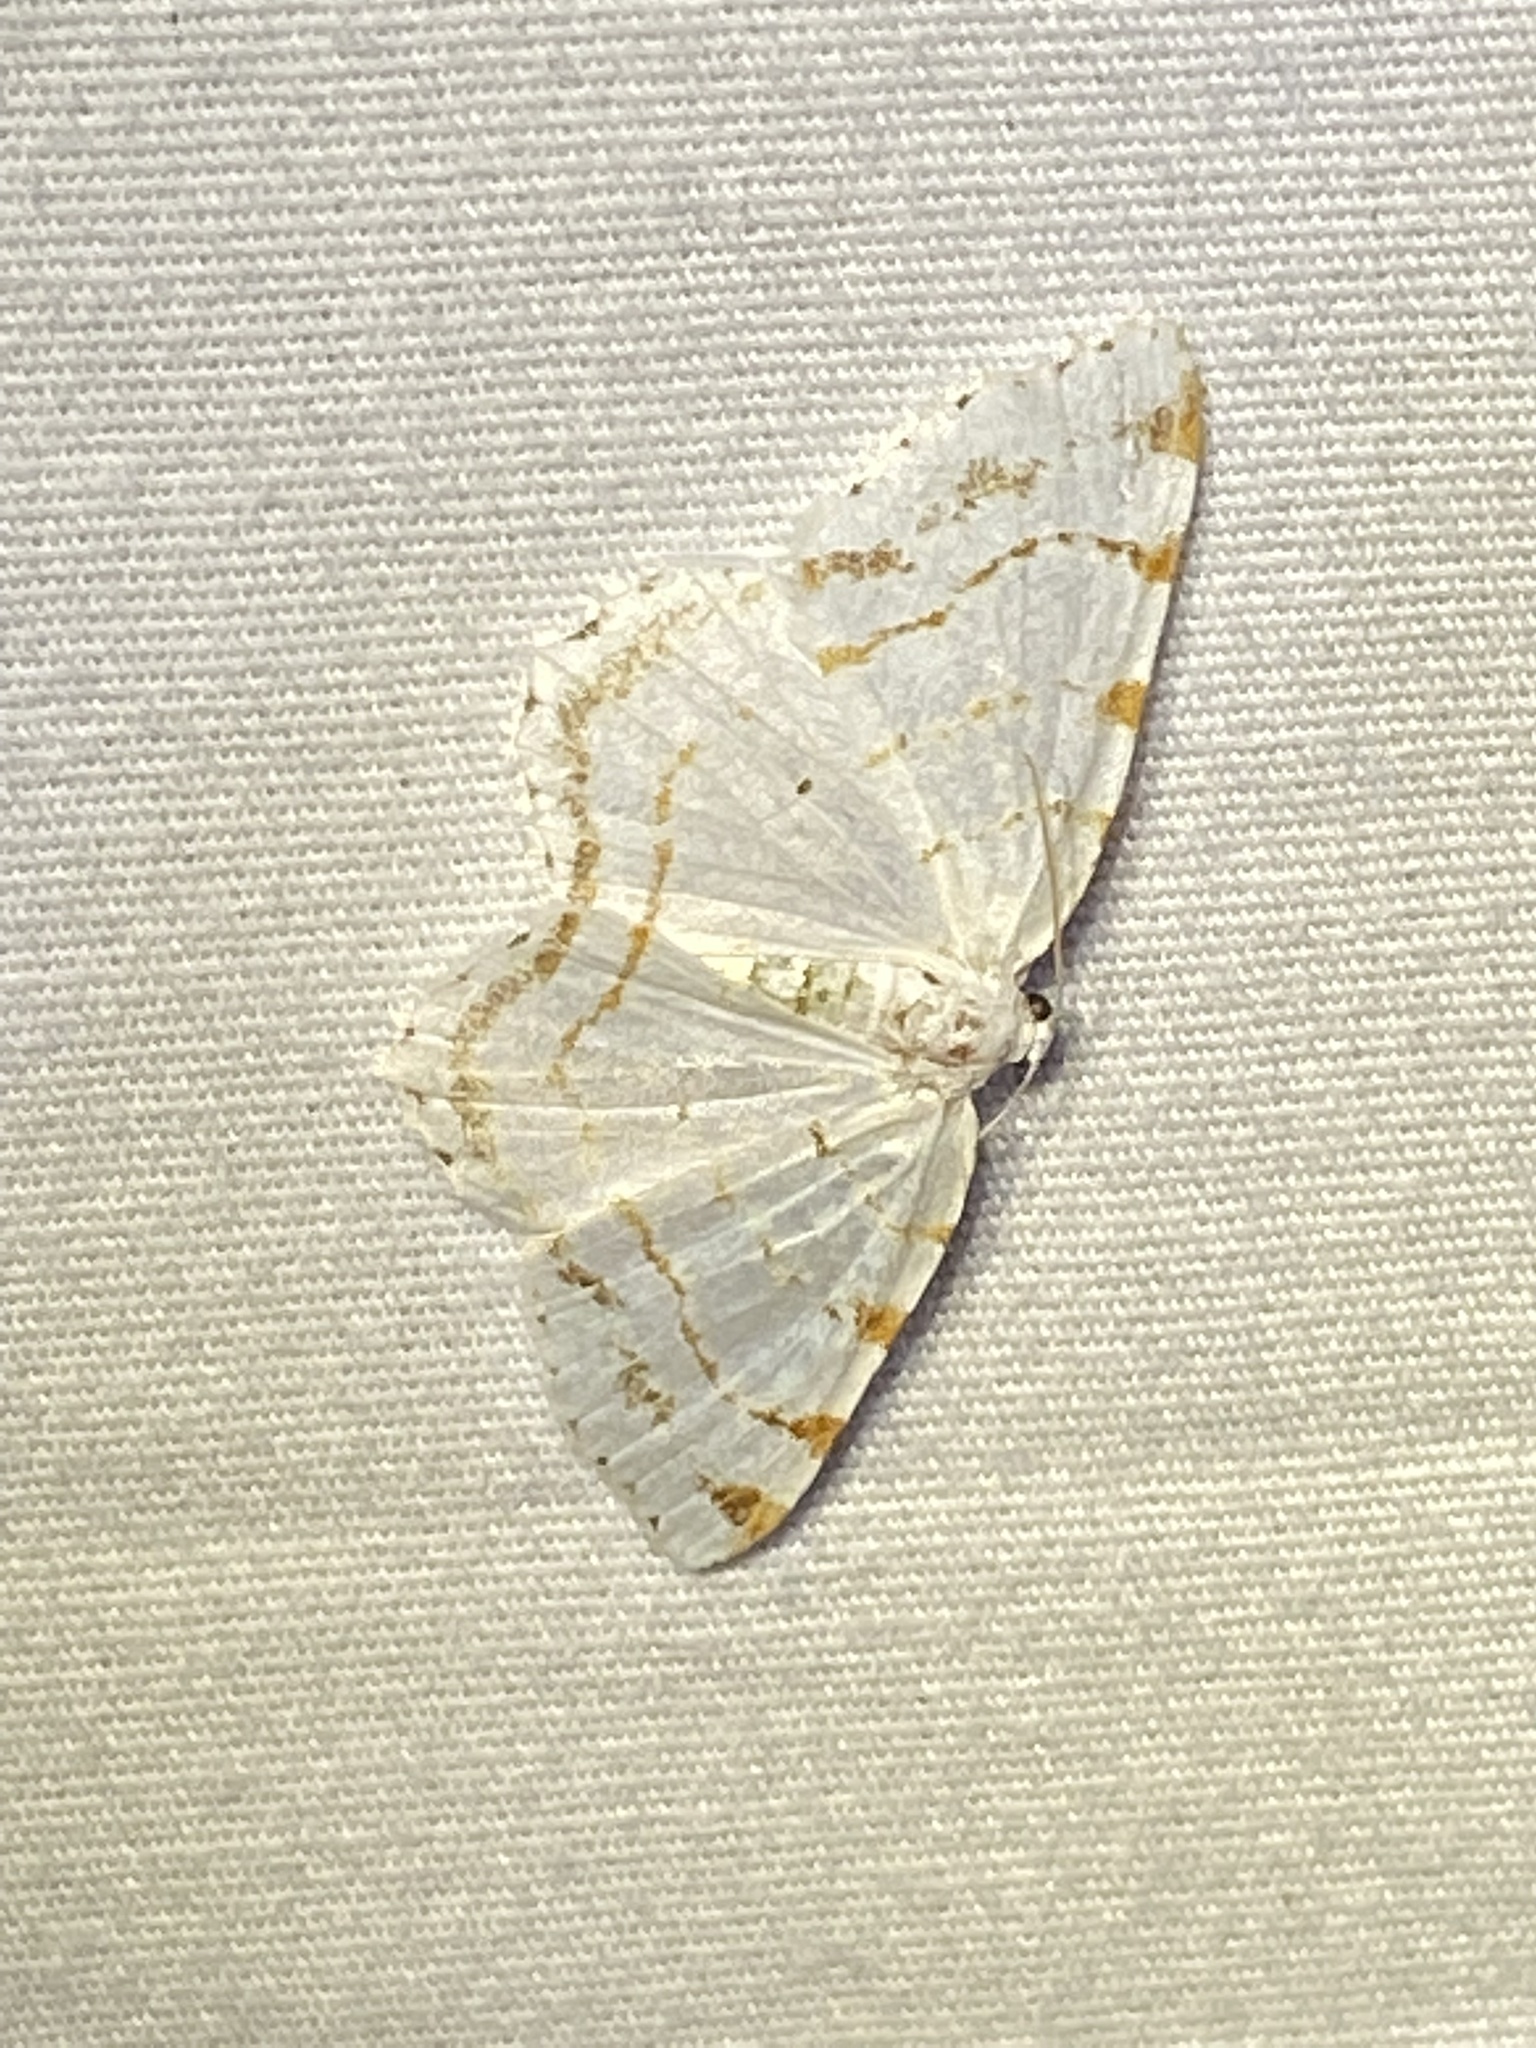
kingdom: Animalia
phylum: Arthropoda
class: Insecta
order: Lepidoptera
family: Geometridae
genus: Macaria
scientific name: Macaria pustularia
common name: Lesser maple spanworm moth
